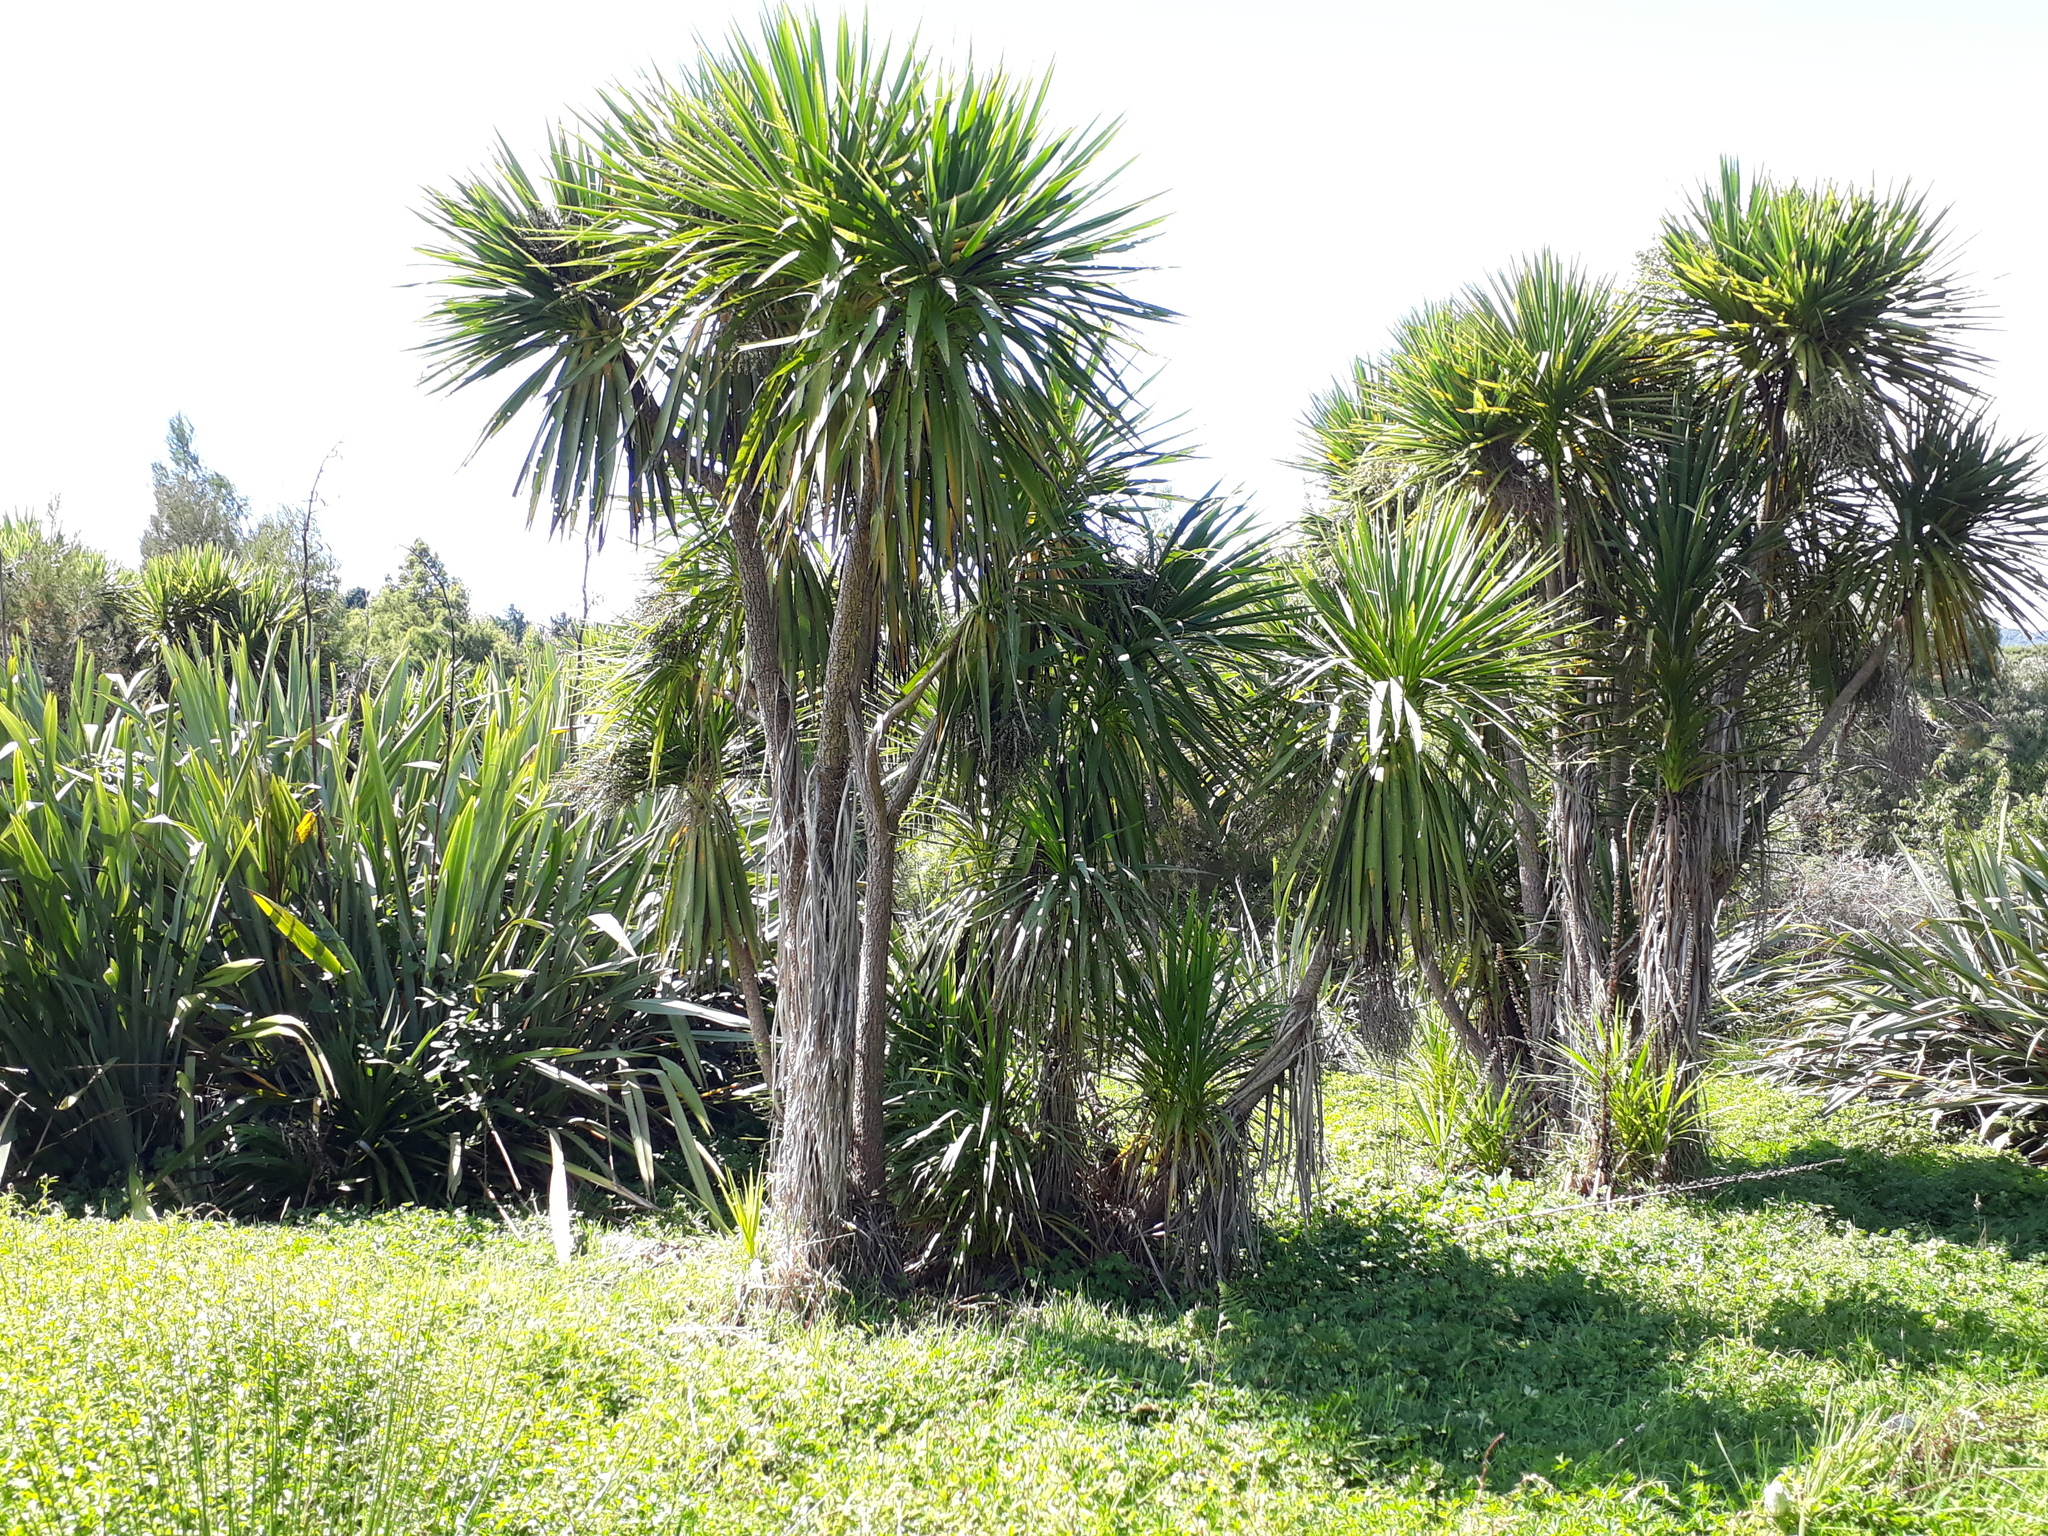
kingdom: Plantae
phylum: Tracheophyta
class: Liliopsida
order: Asparagales
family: Asparagaceae
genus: Cordyline
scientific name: Cordyline australis
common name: Cabbage-palm
